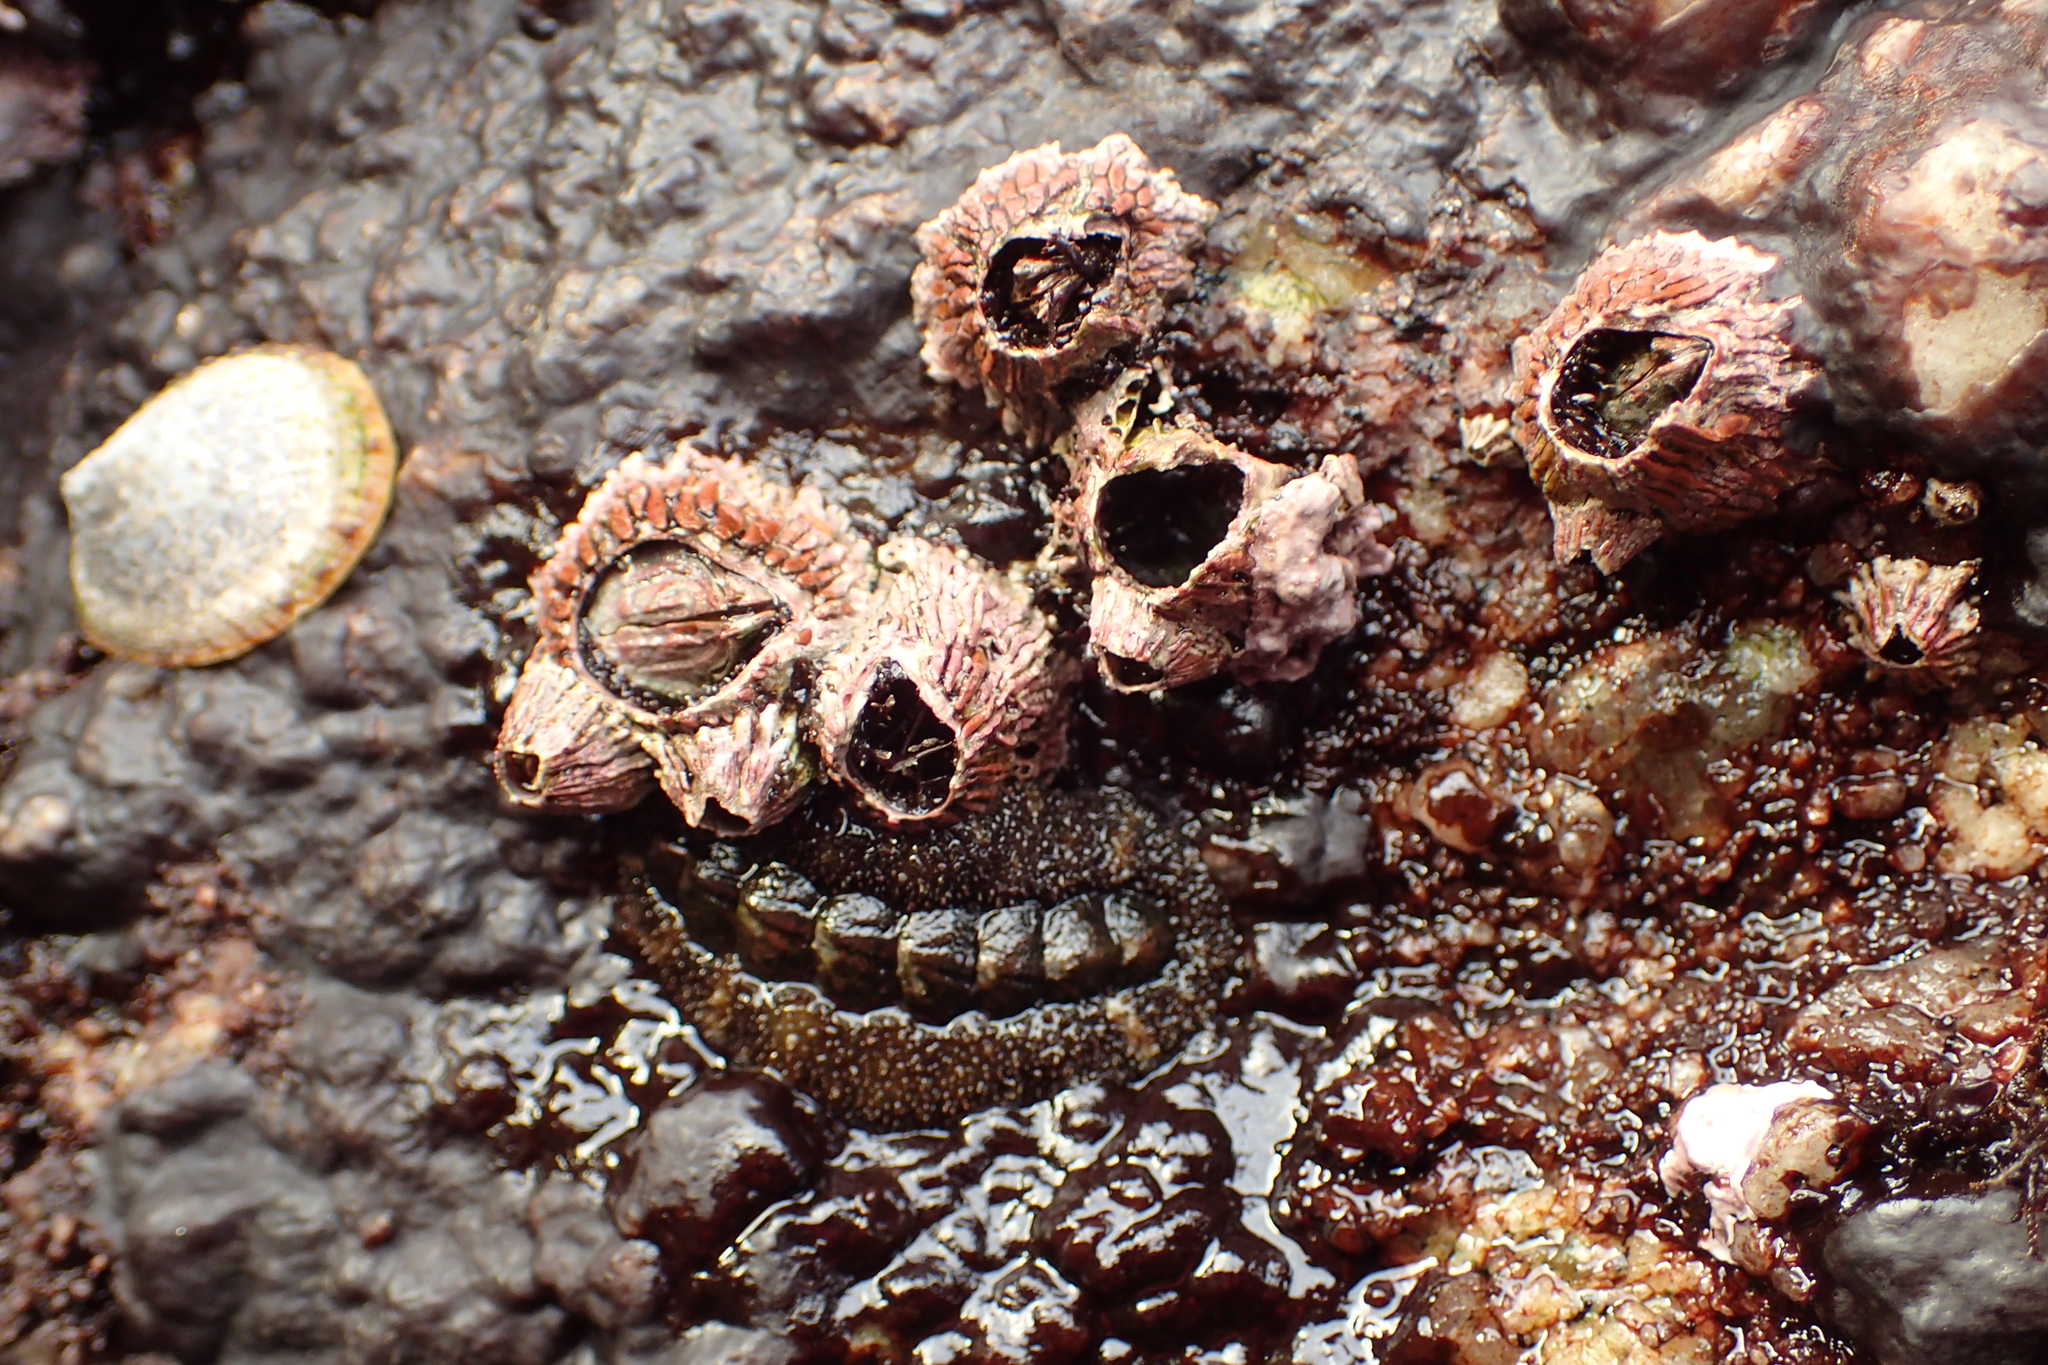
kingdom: Animalia
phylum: Arthropoda
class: Maxillopoda
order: Sessilia
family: Tetraclitidae
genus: Tetraclita
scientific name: Tetraclita rubescens
